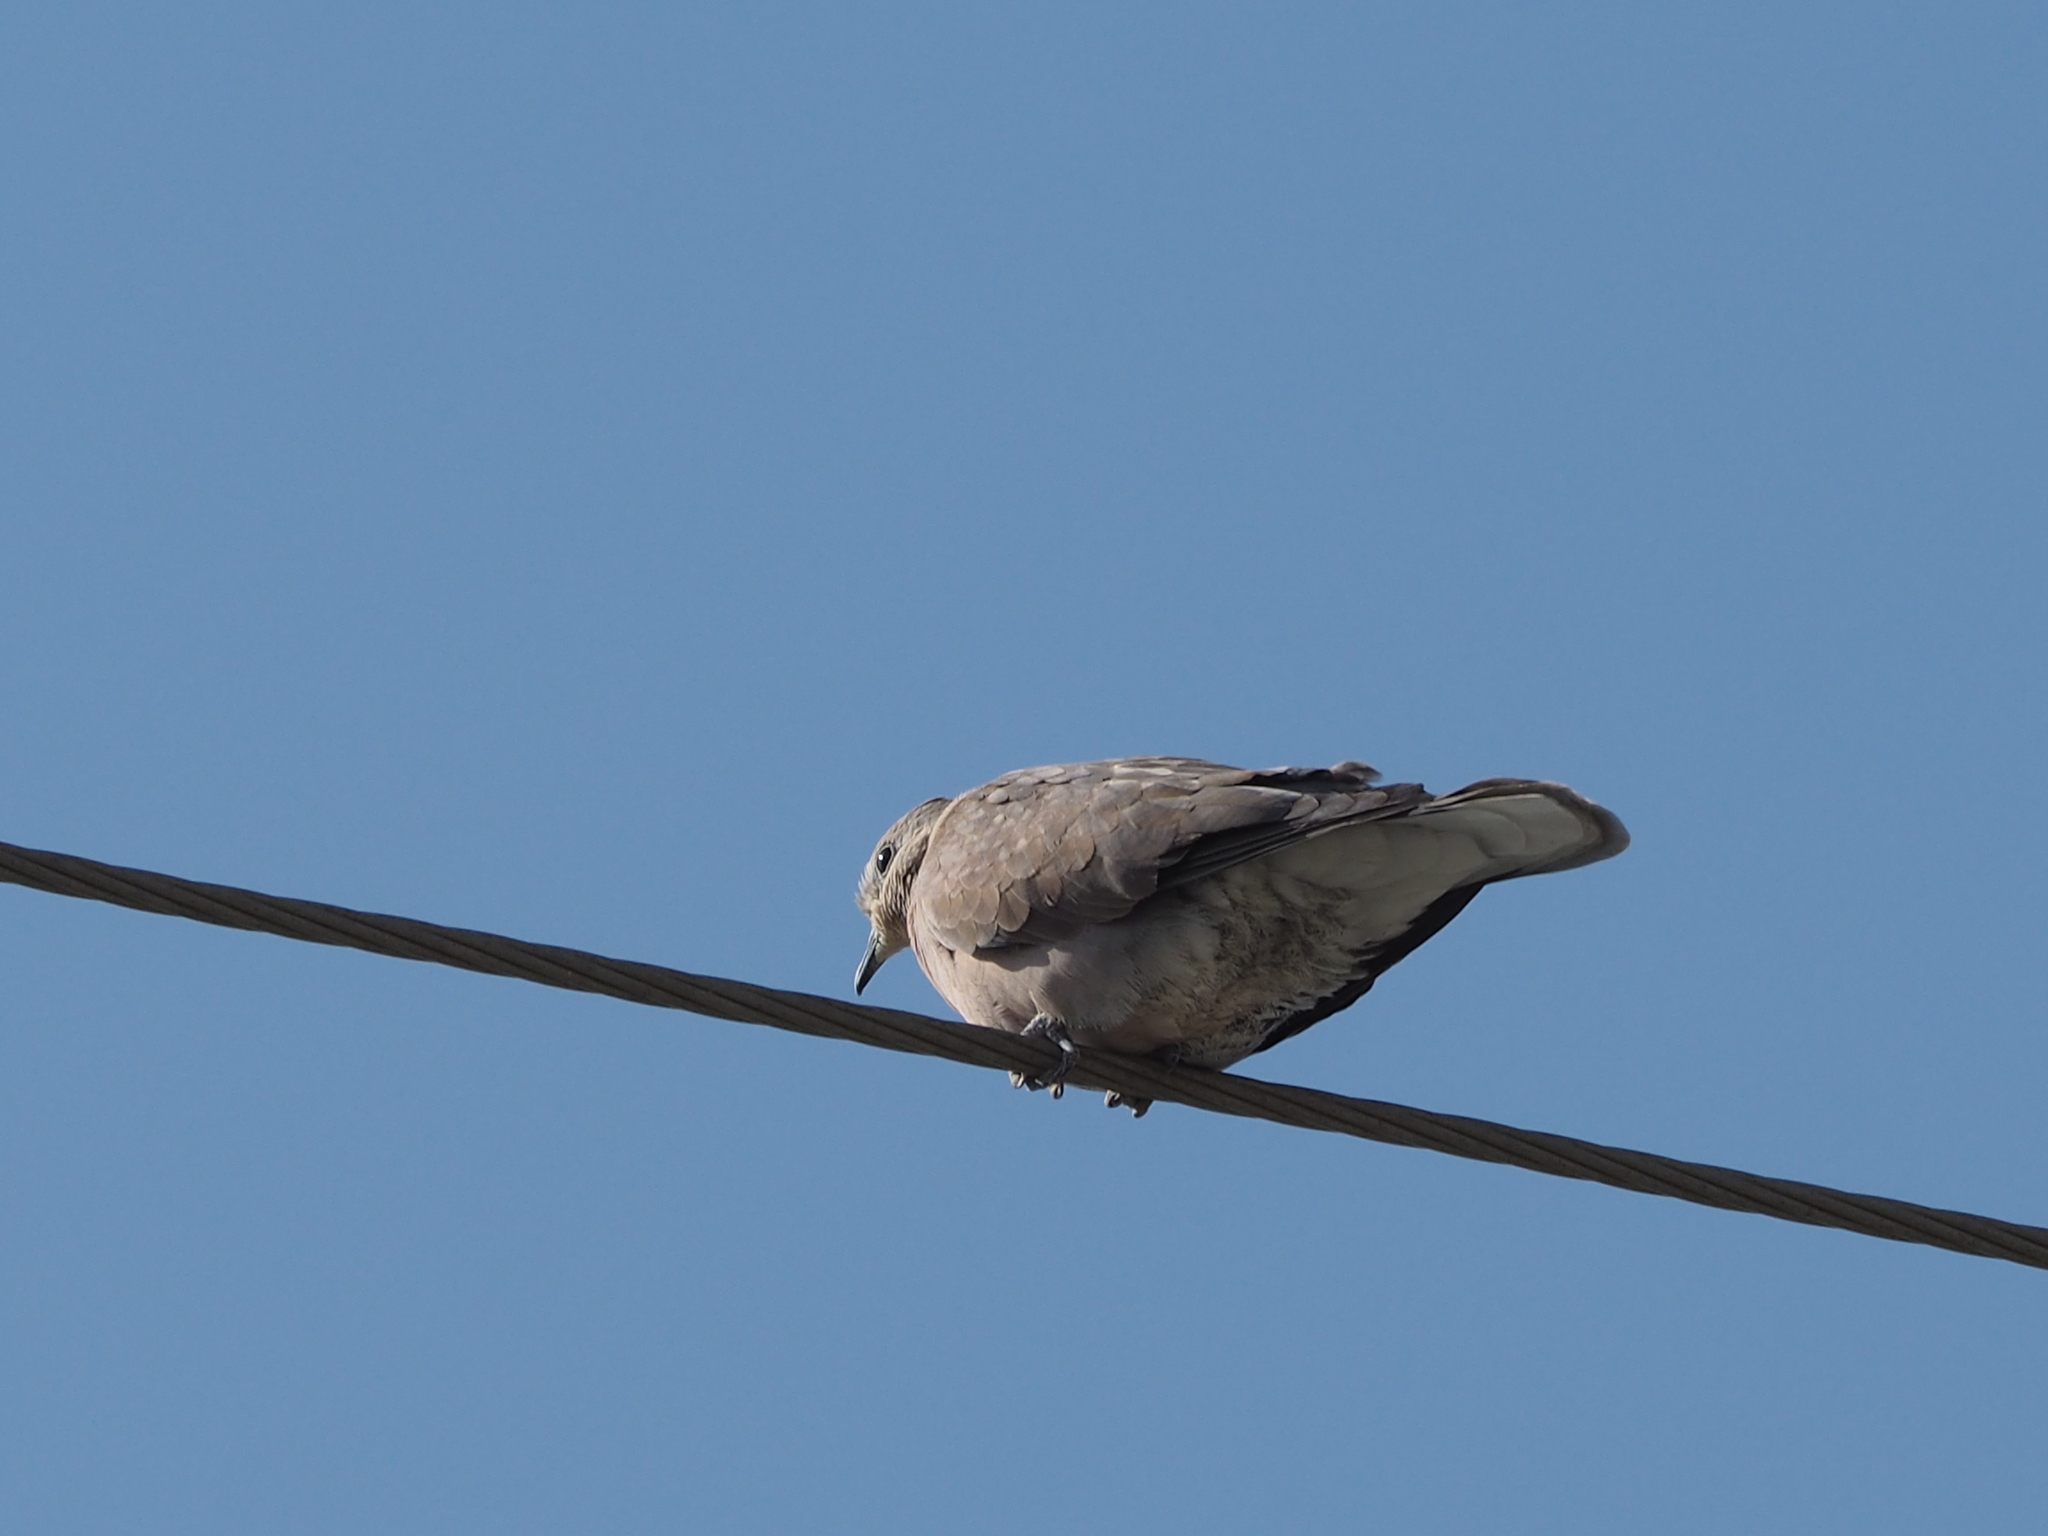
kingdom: Animalia
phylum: Chordata
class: Aves
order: Columbiformes
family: Columbidae
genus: Streptopelia
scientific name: Streptopelia tranquebarica
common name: Red turtle dove
